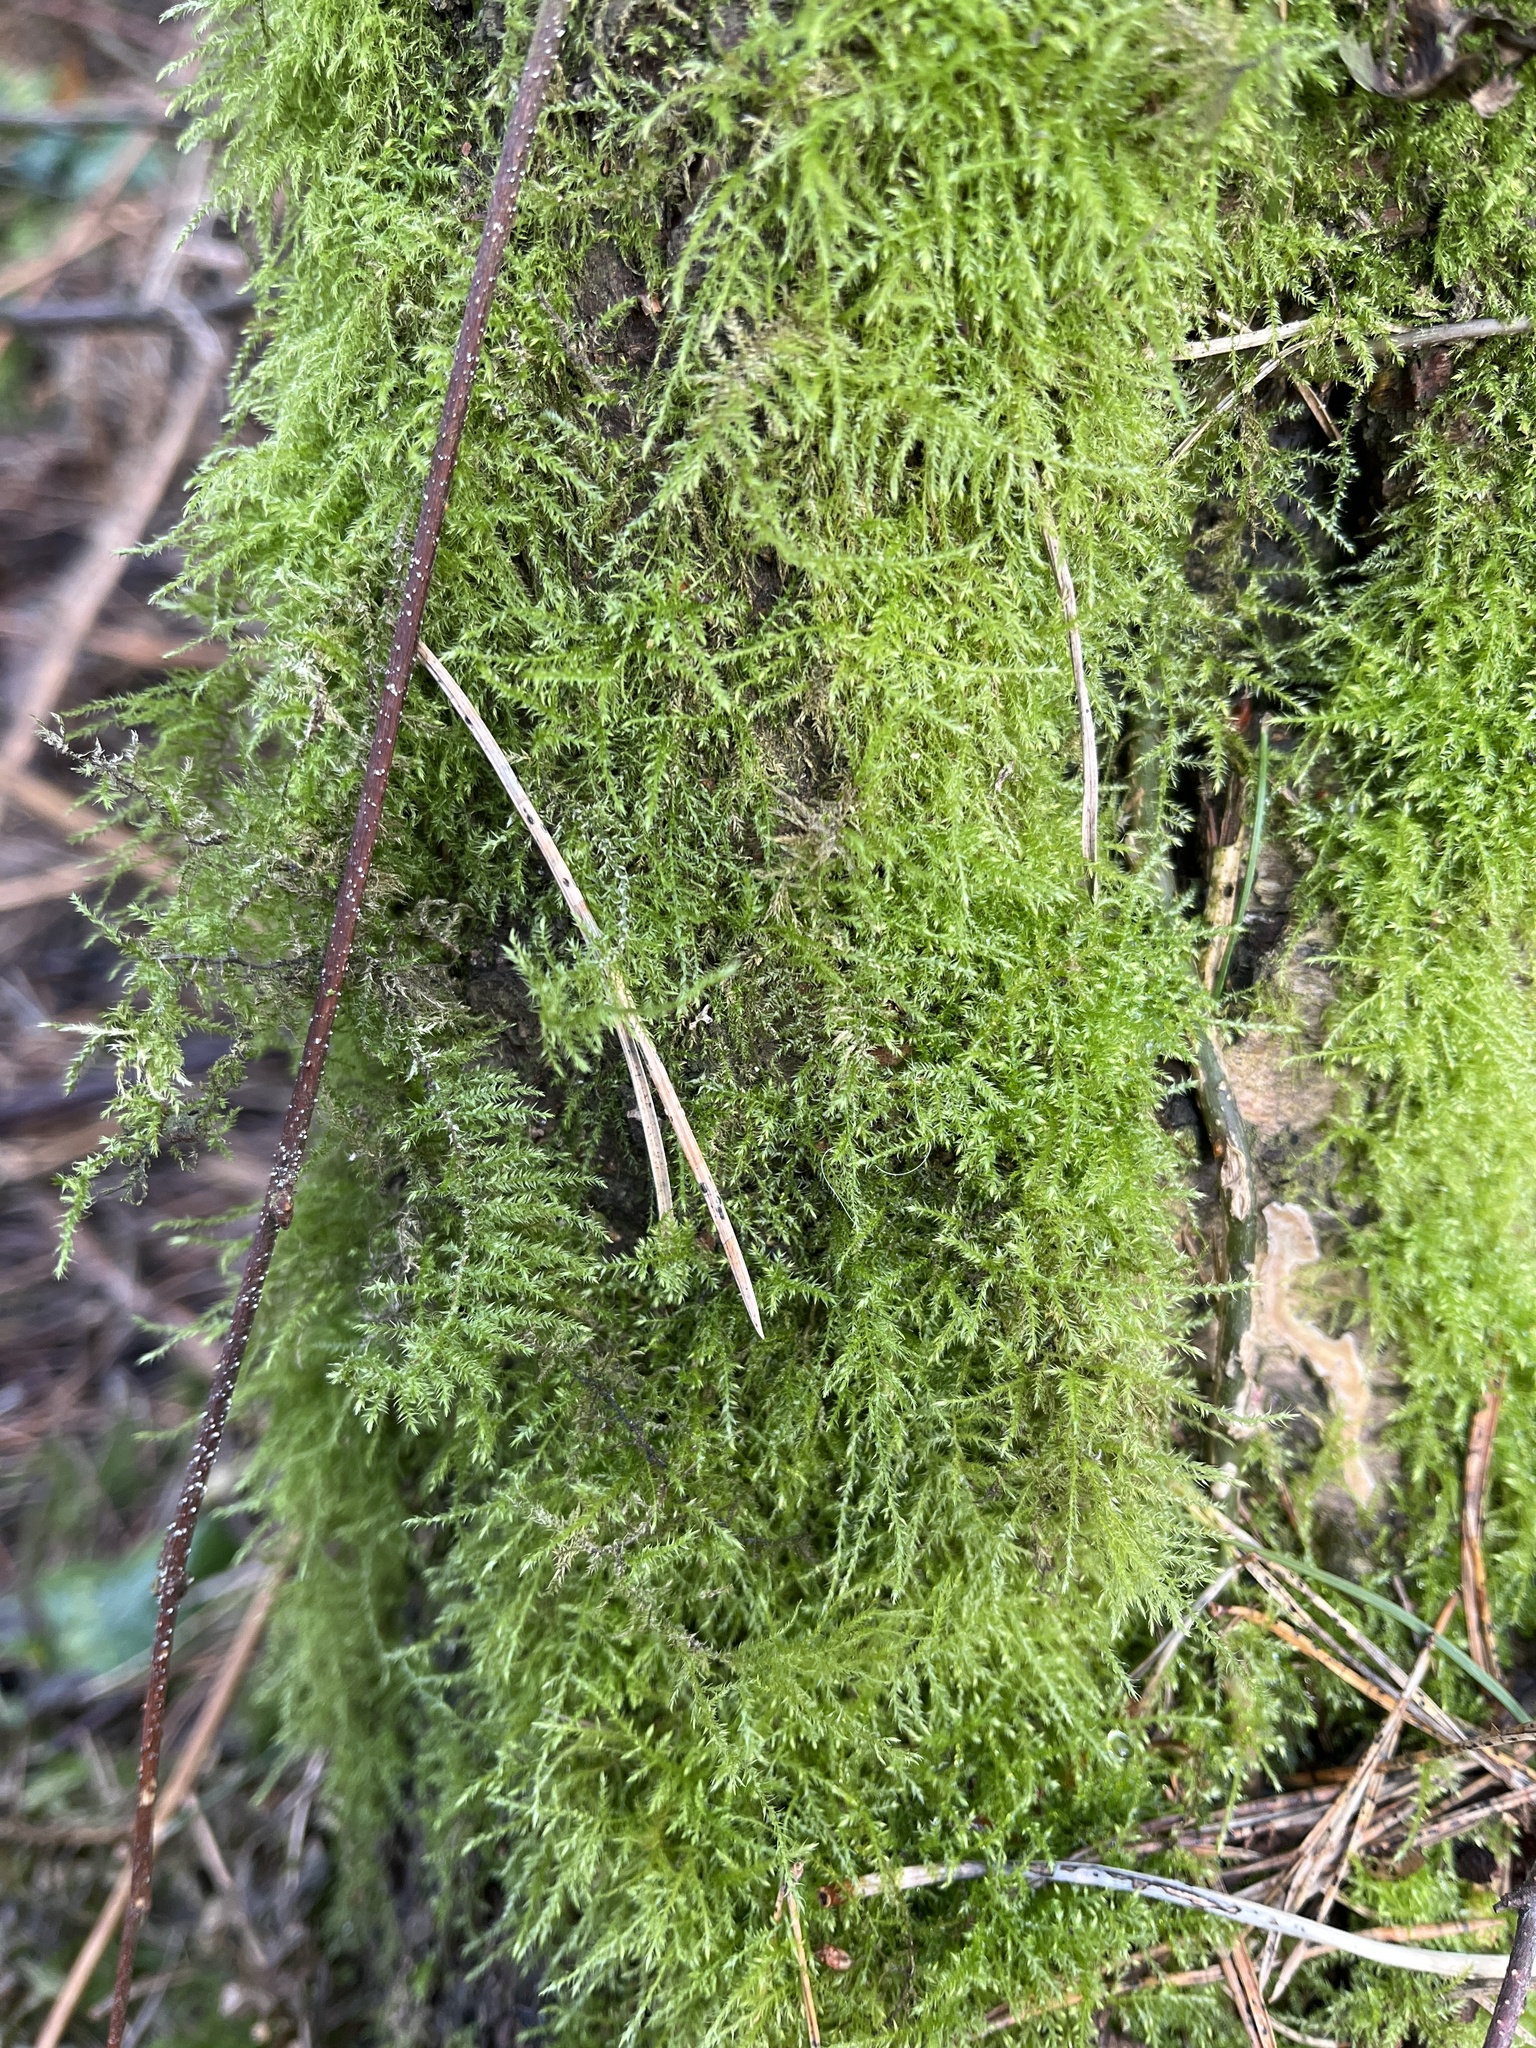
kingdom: Plantae
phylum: Bryophyta
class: Bryopsida
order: Hypnales
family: Brachytheciaceae
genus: Kindbergia
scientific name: Kindbergia praelonga
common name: Slender beaked moss
